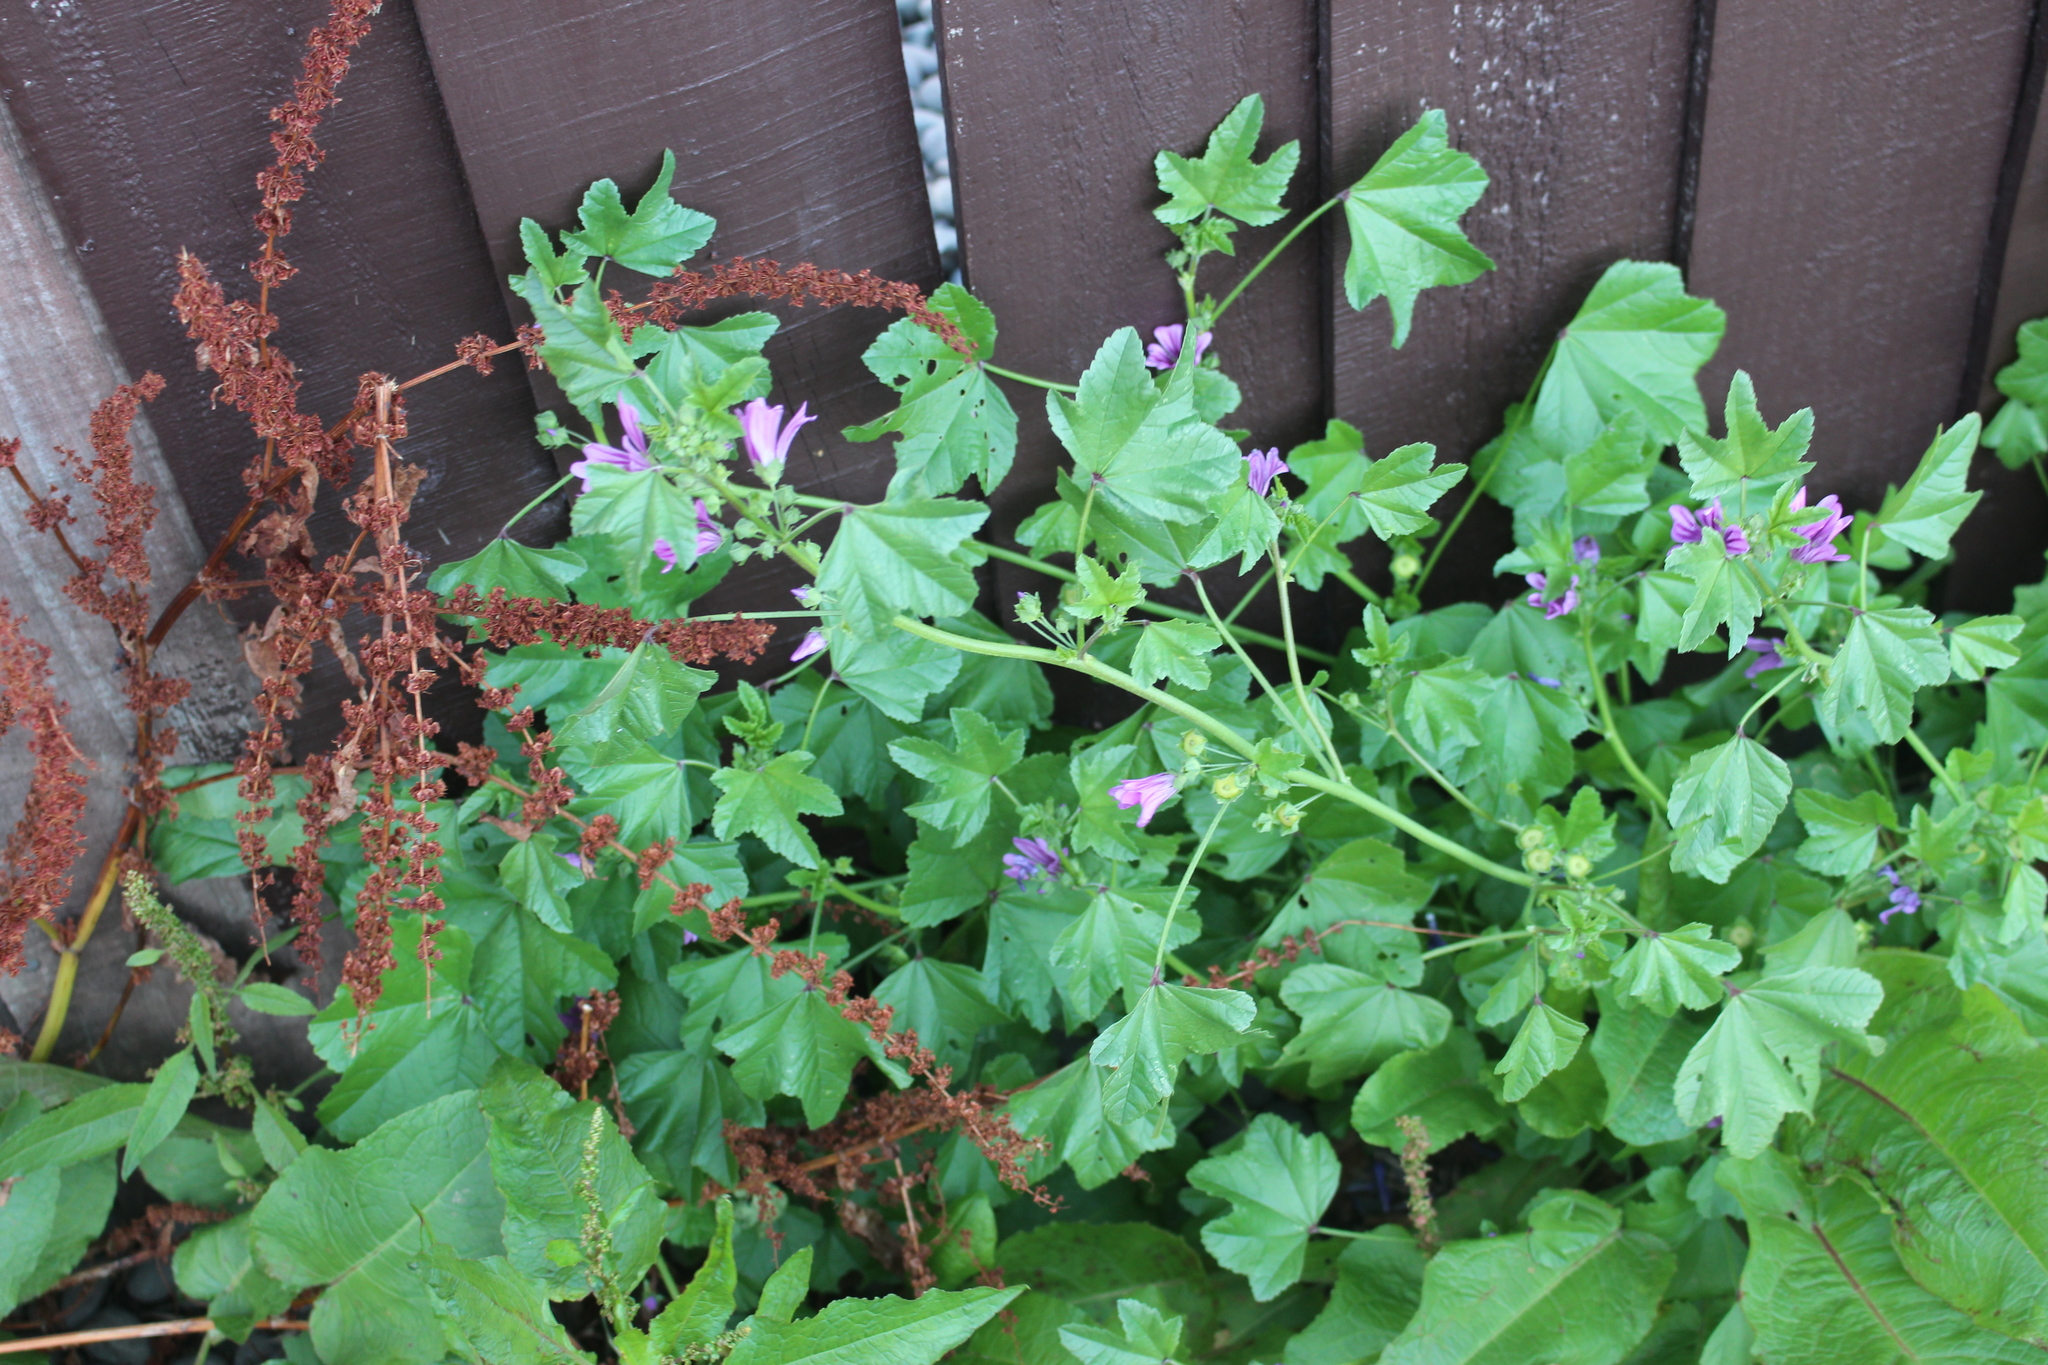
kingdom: Plantae
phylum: Tracheophyta
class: Magnoliopsida
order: Malvales
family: Malvaceae
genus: Malva
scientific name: Malva sylvestris
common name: Common mallow
